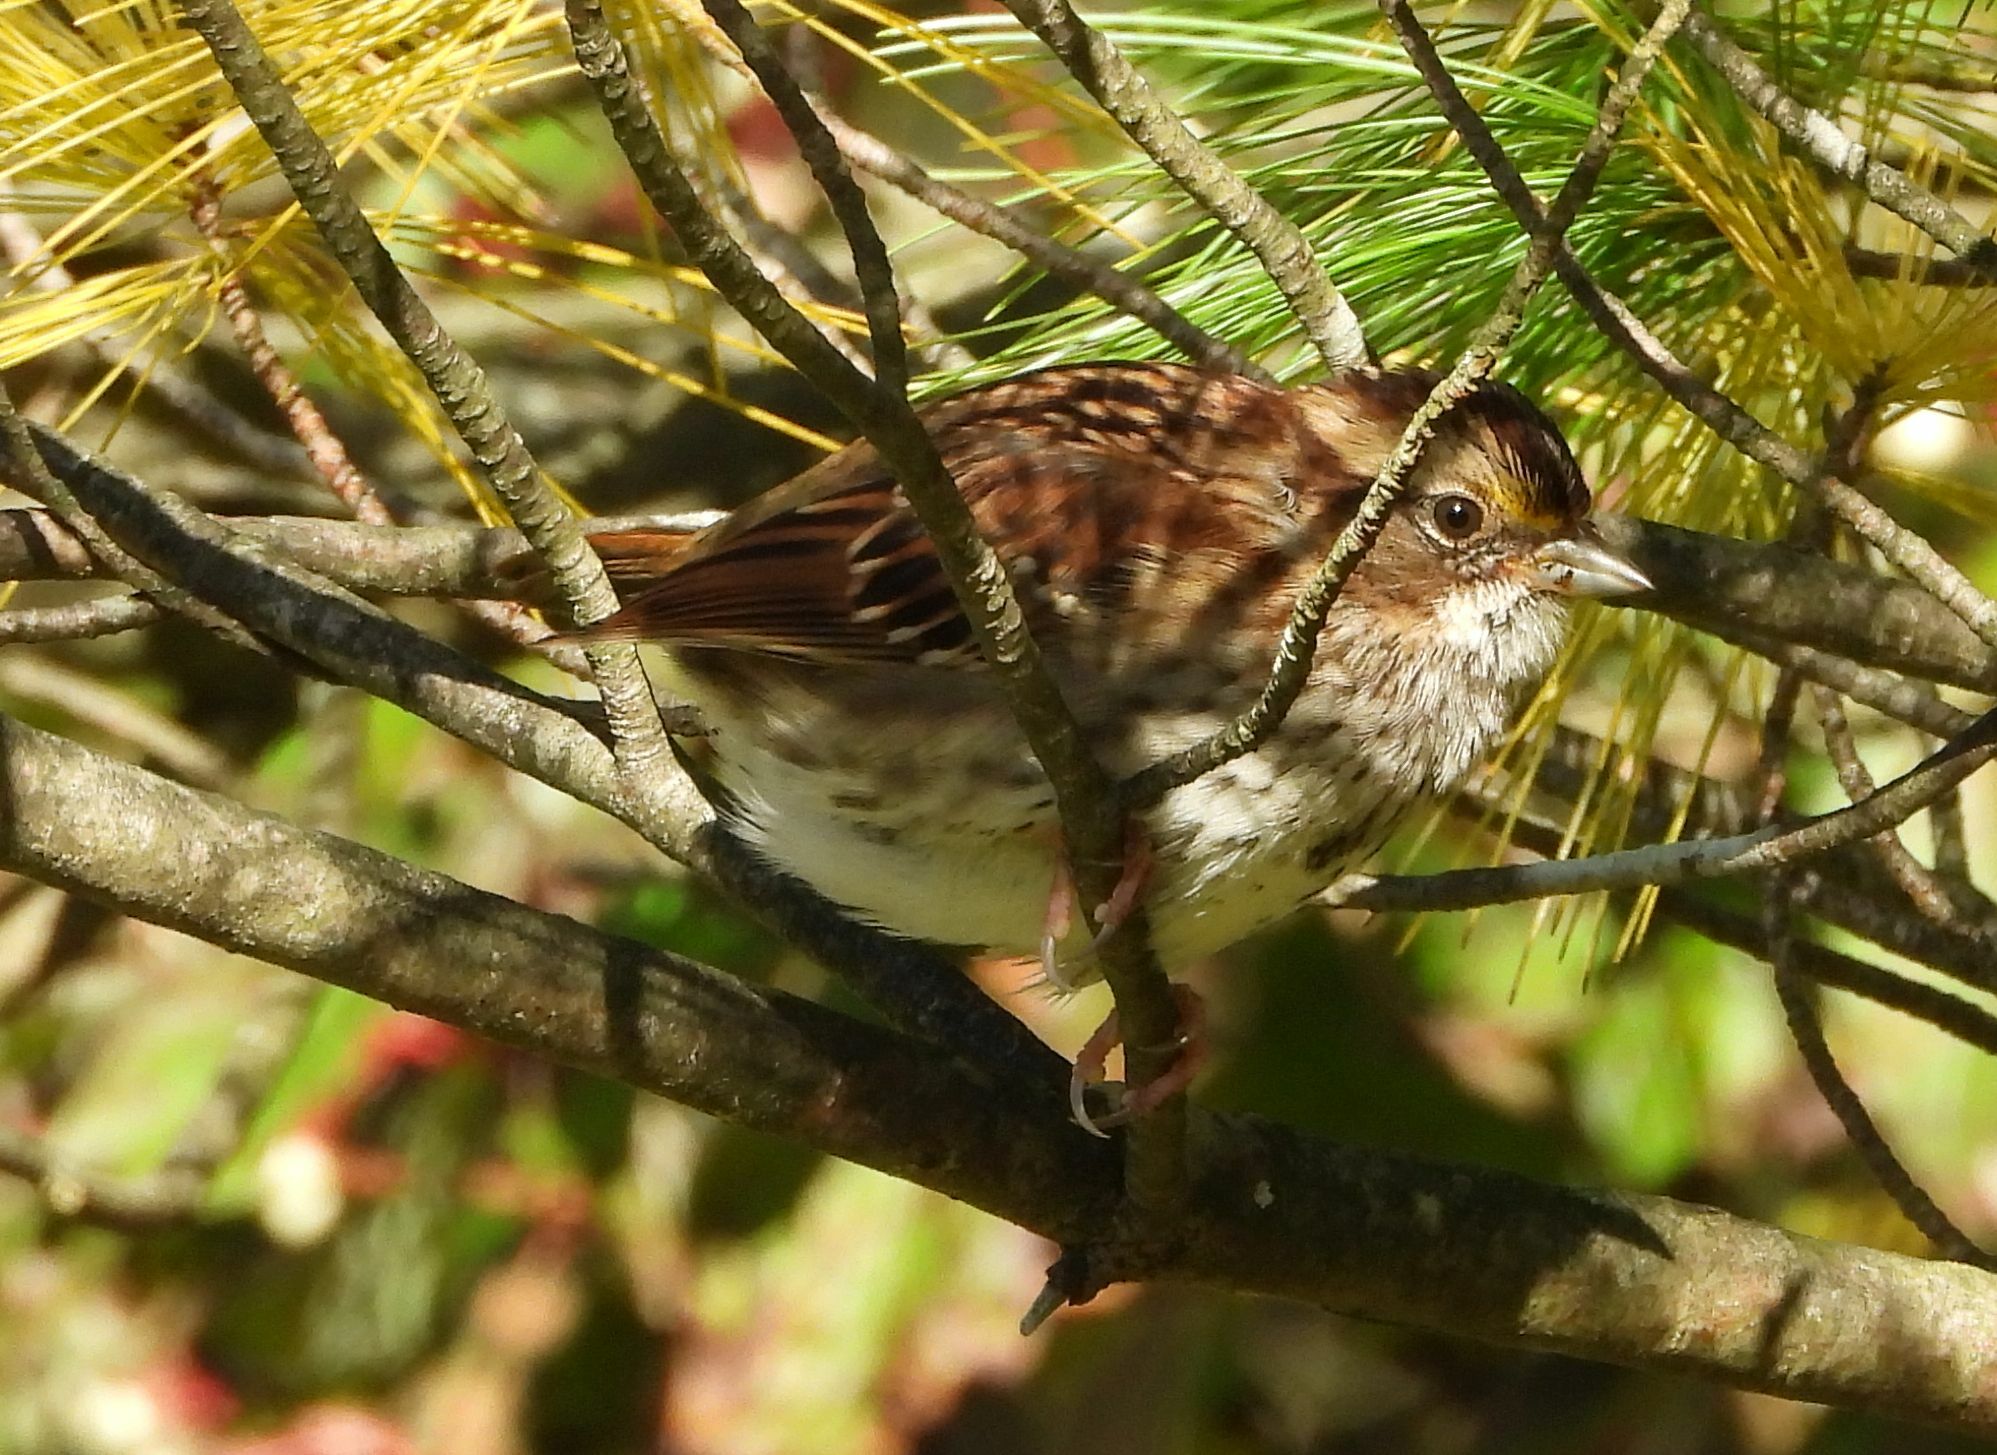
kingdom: Animalia
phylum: Chordata
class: Aves
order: Passeriformes
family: Passerellidae
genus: Zonotrichia
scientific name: Zonotrichia albicollis
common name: White-throated sparrow
